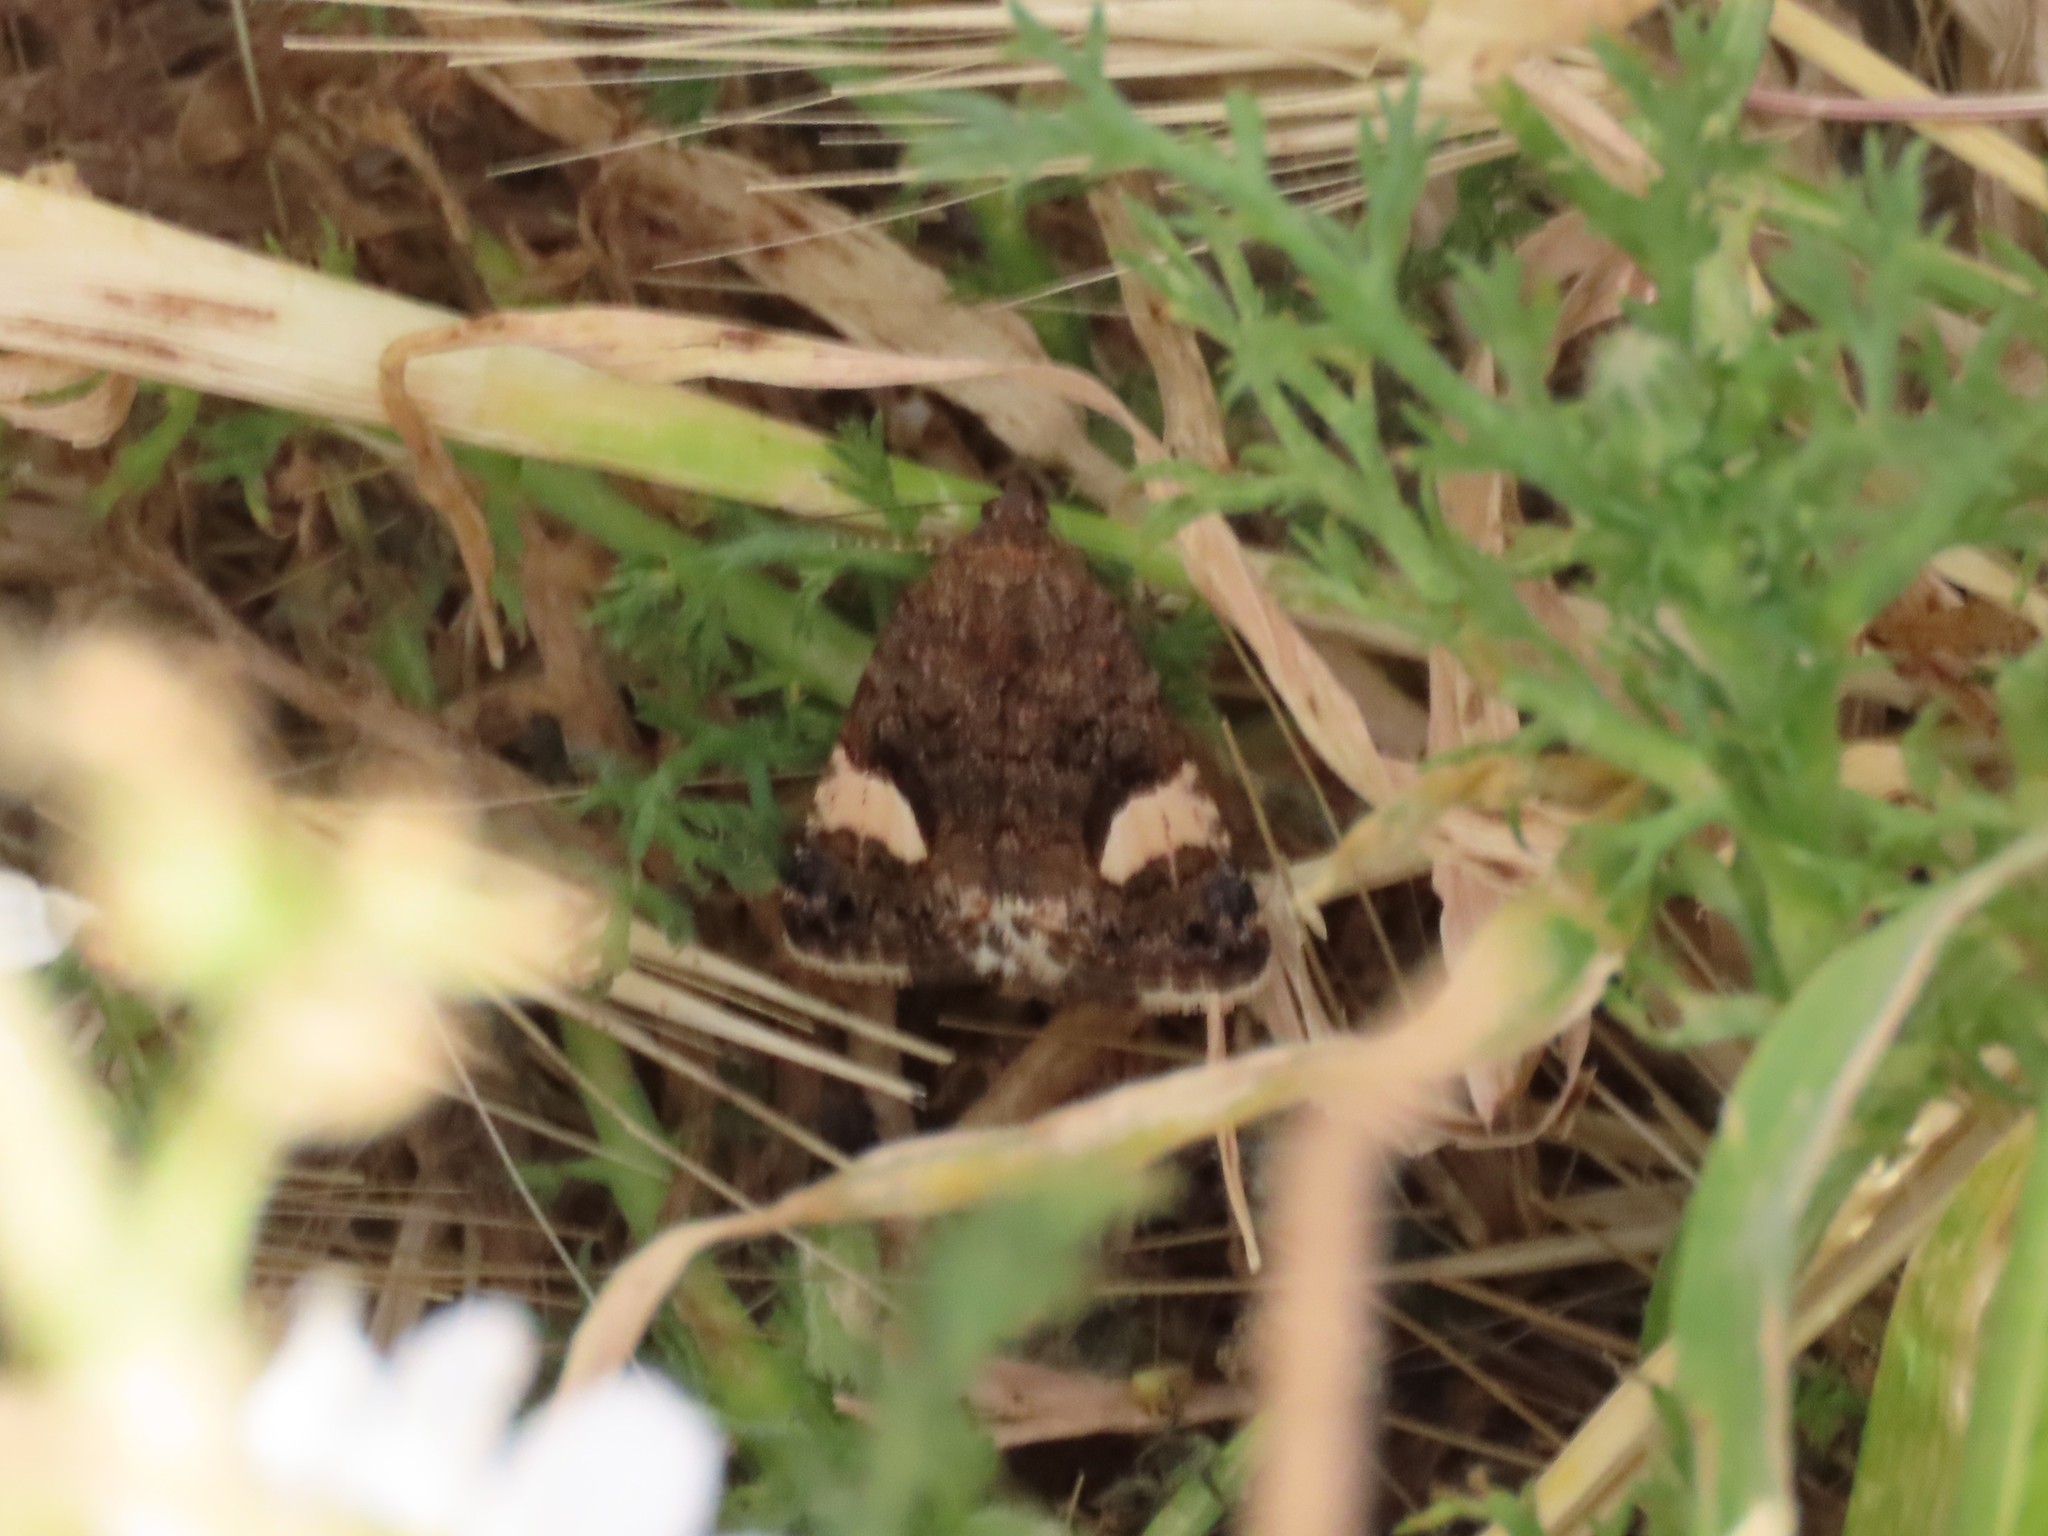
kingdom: Animalia
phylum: Arthropoda
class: Insecta
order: Lepidoptera
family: Erebidae
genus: Tyta
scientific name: Tyta luctuosa
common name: Four-spotted
